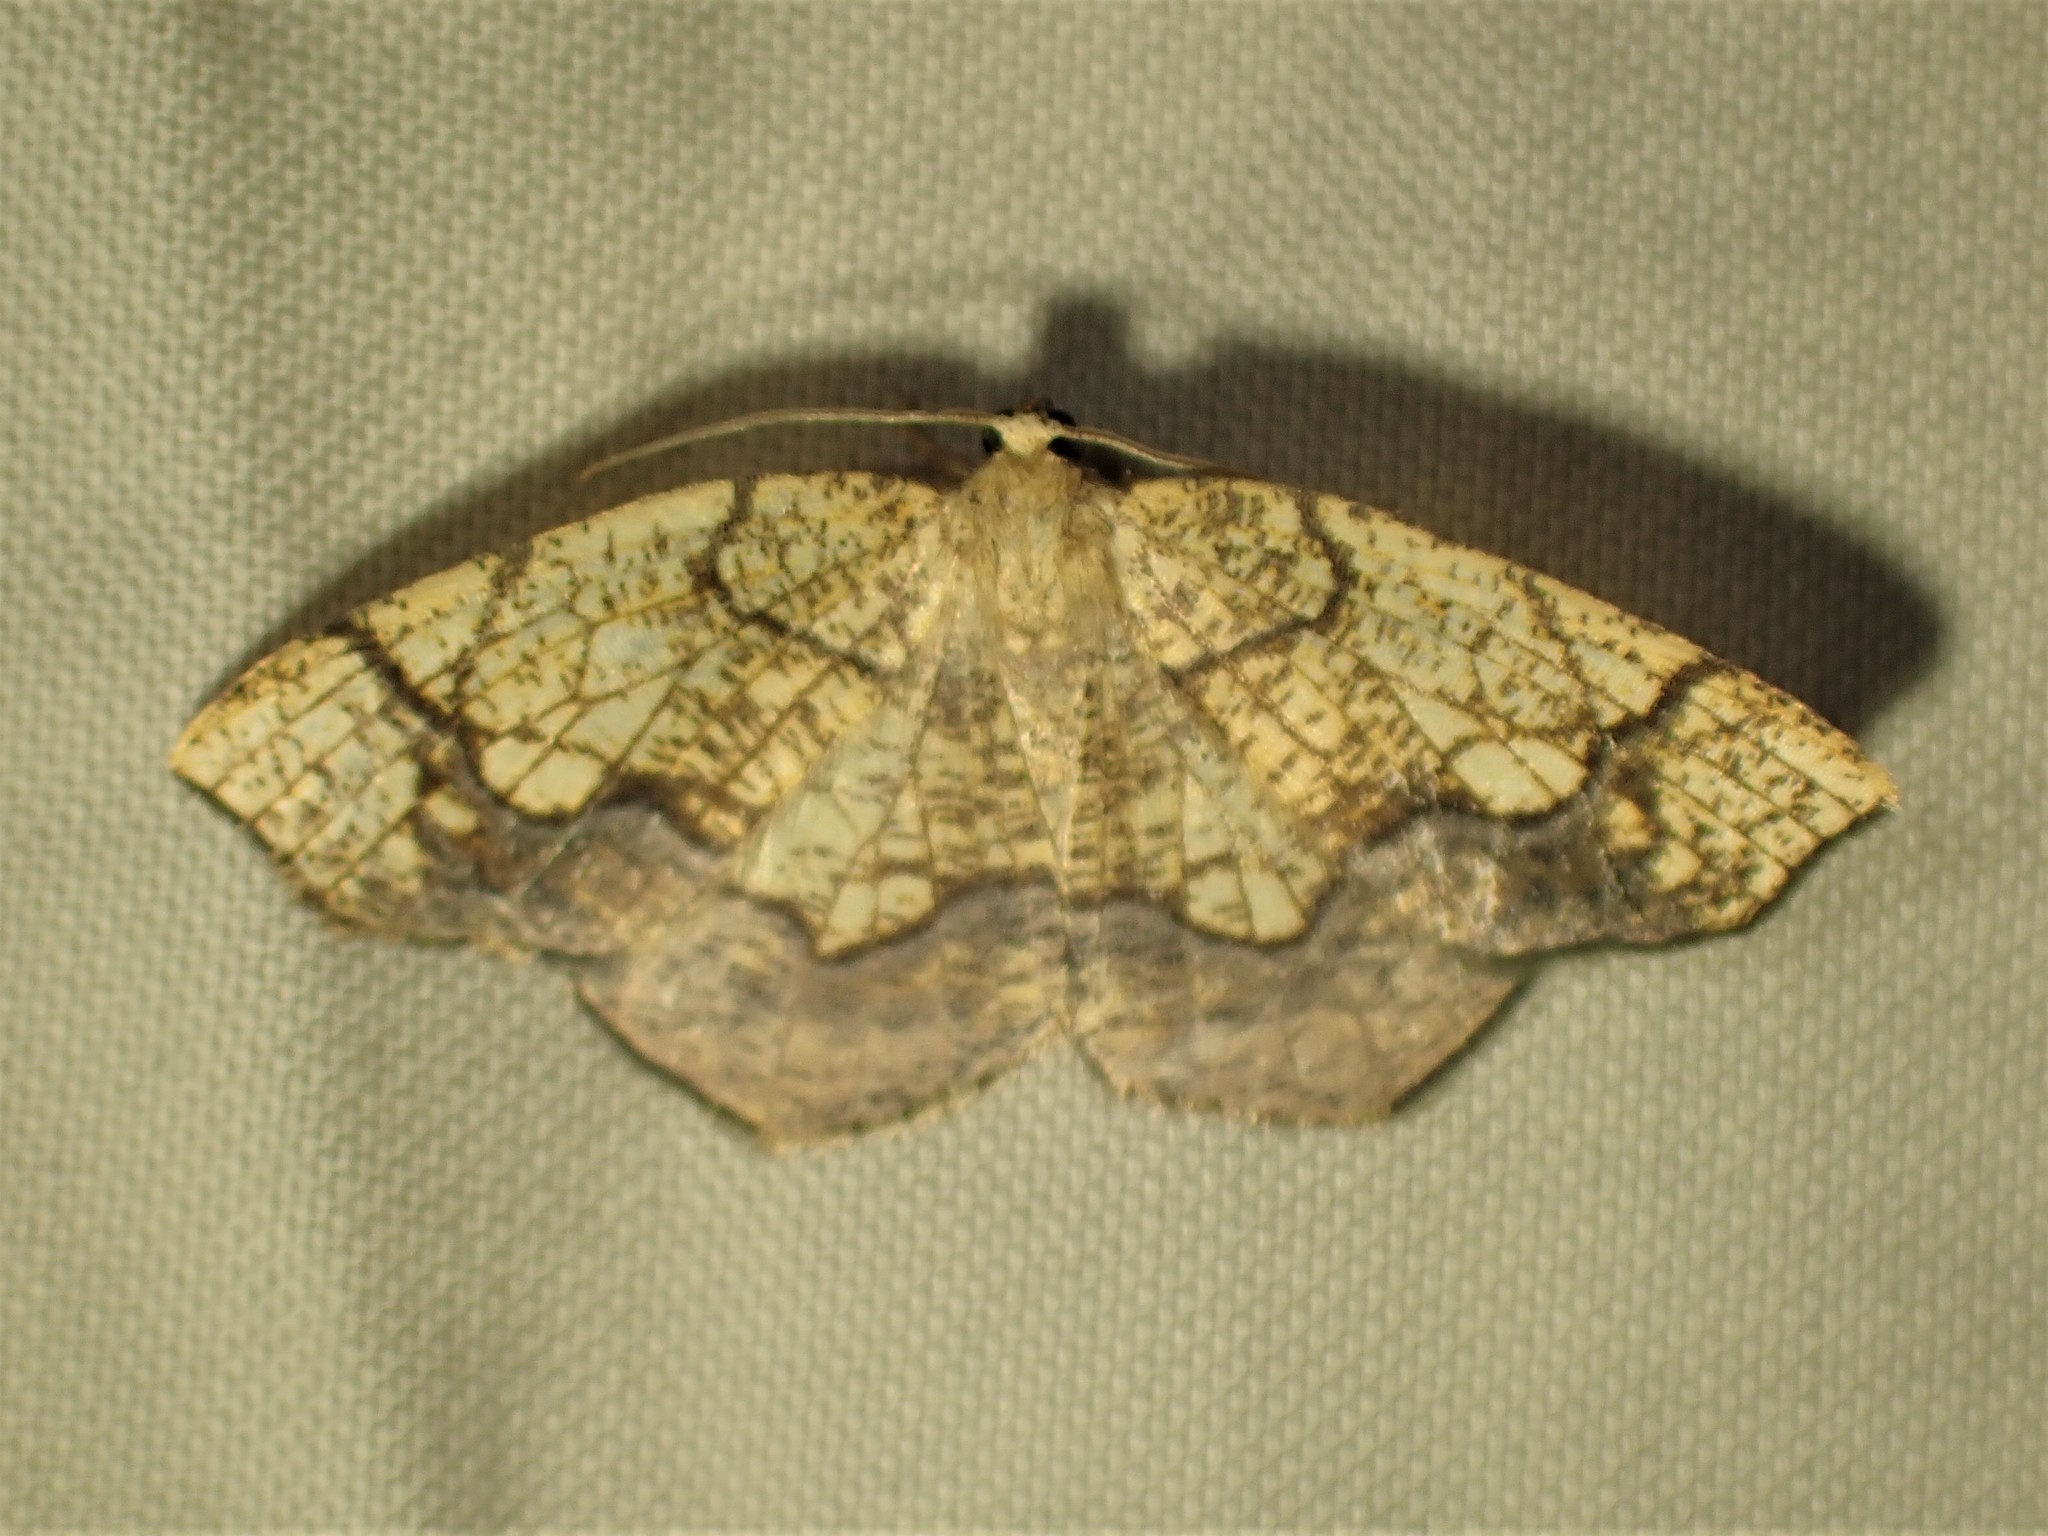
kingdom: Animalia
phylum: Arthropoda
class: Insecta
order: Lepidoptera
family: Geometridae
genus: Nematocampa
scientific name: Nematocampa resistaria
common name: Horned spanworm moth
